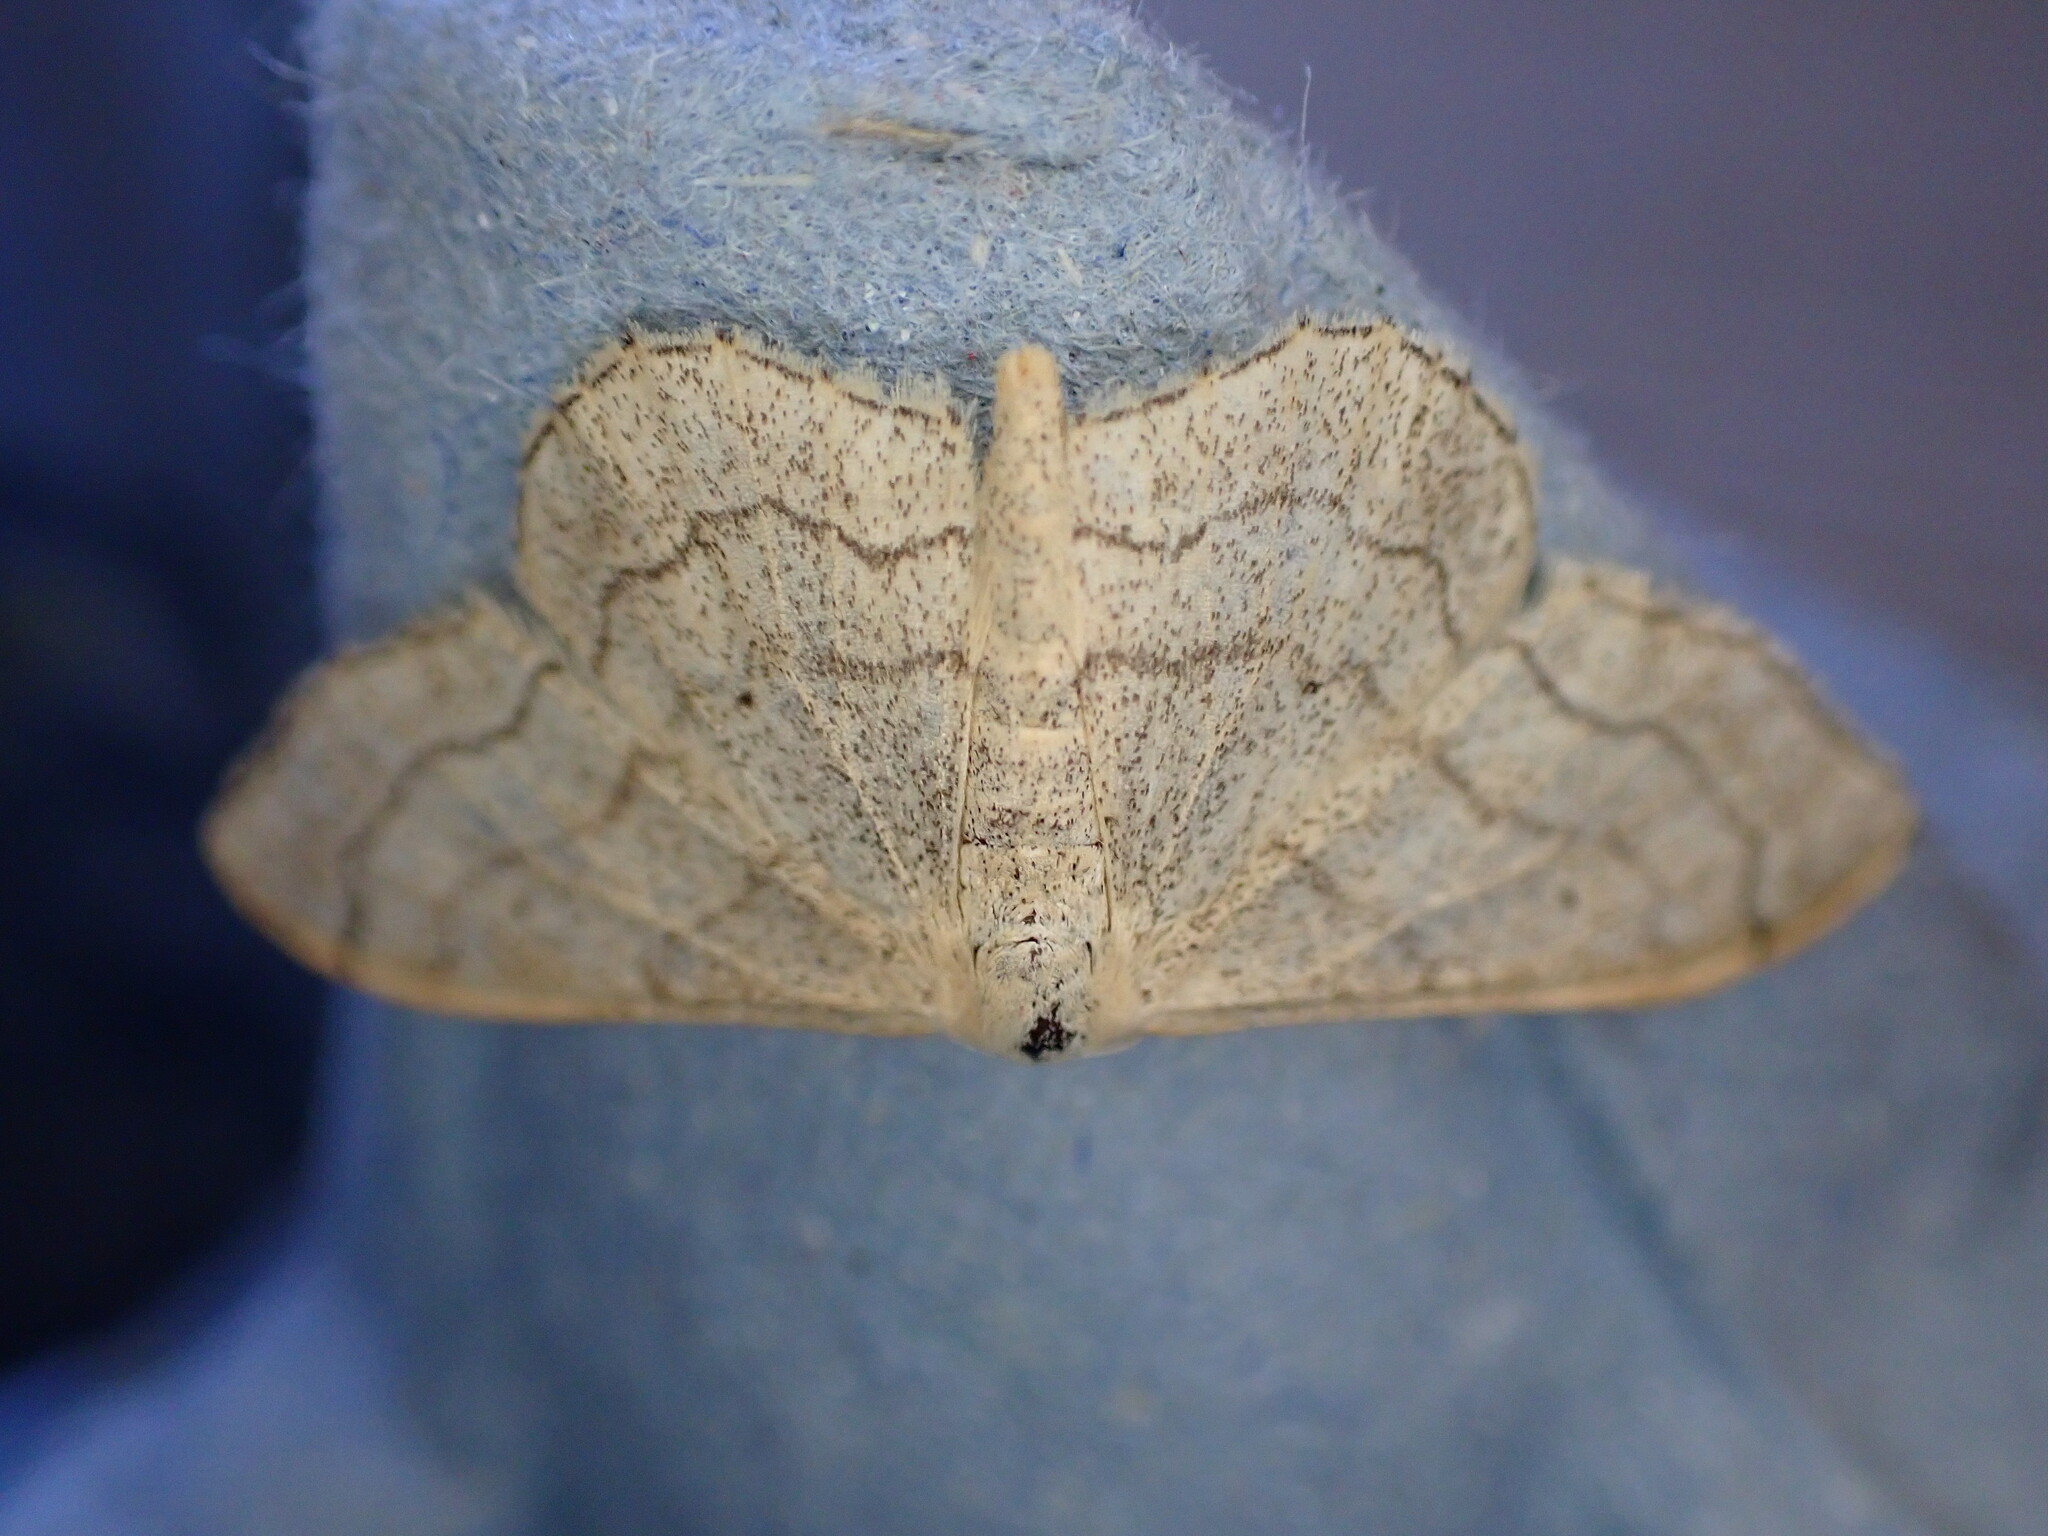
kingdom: Animalia
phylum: Arthropoda
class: Insecta
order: Lepidoptera
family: Geometridae
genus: Idaea
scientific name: Idaea aversata
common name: Riband wave
